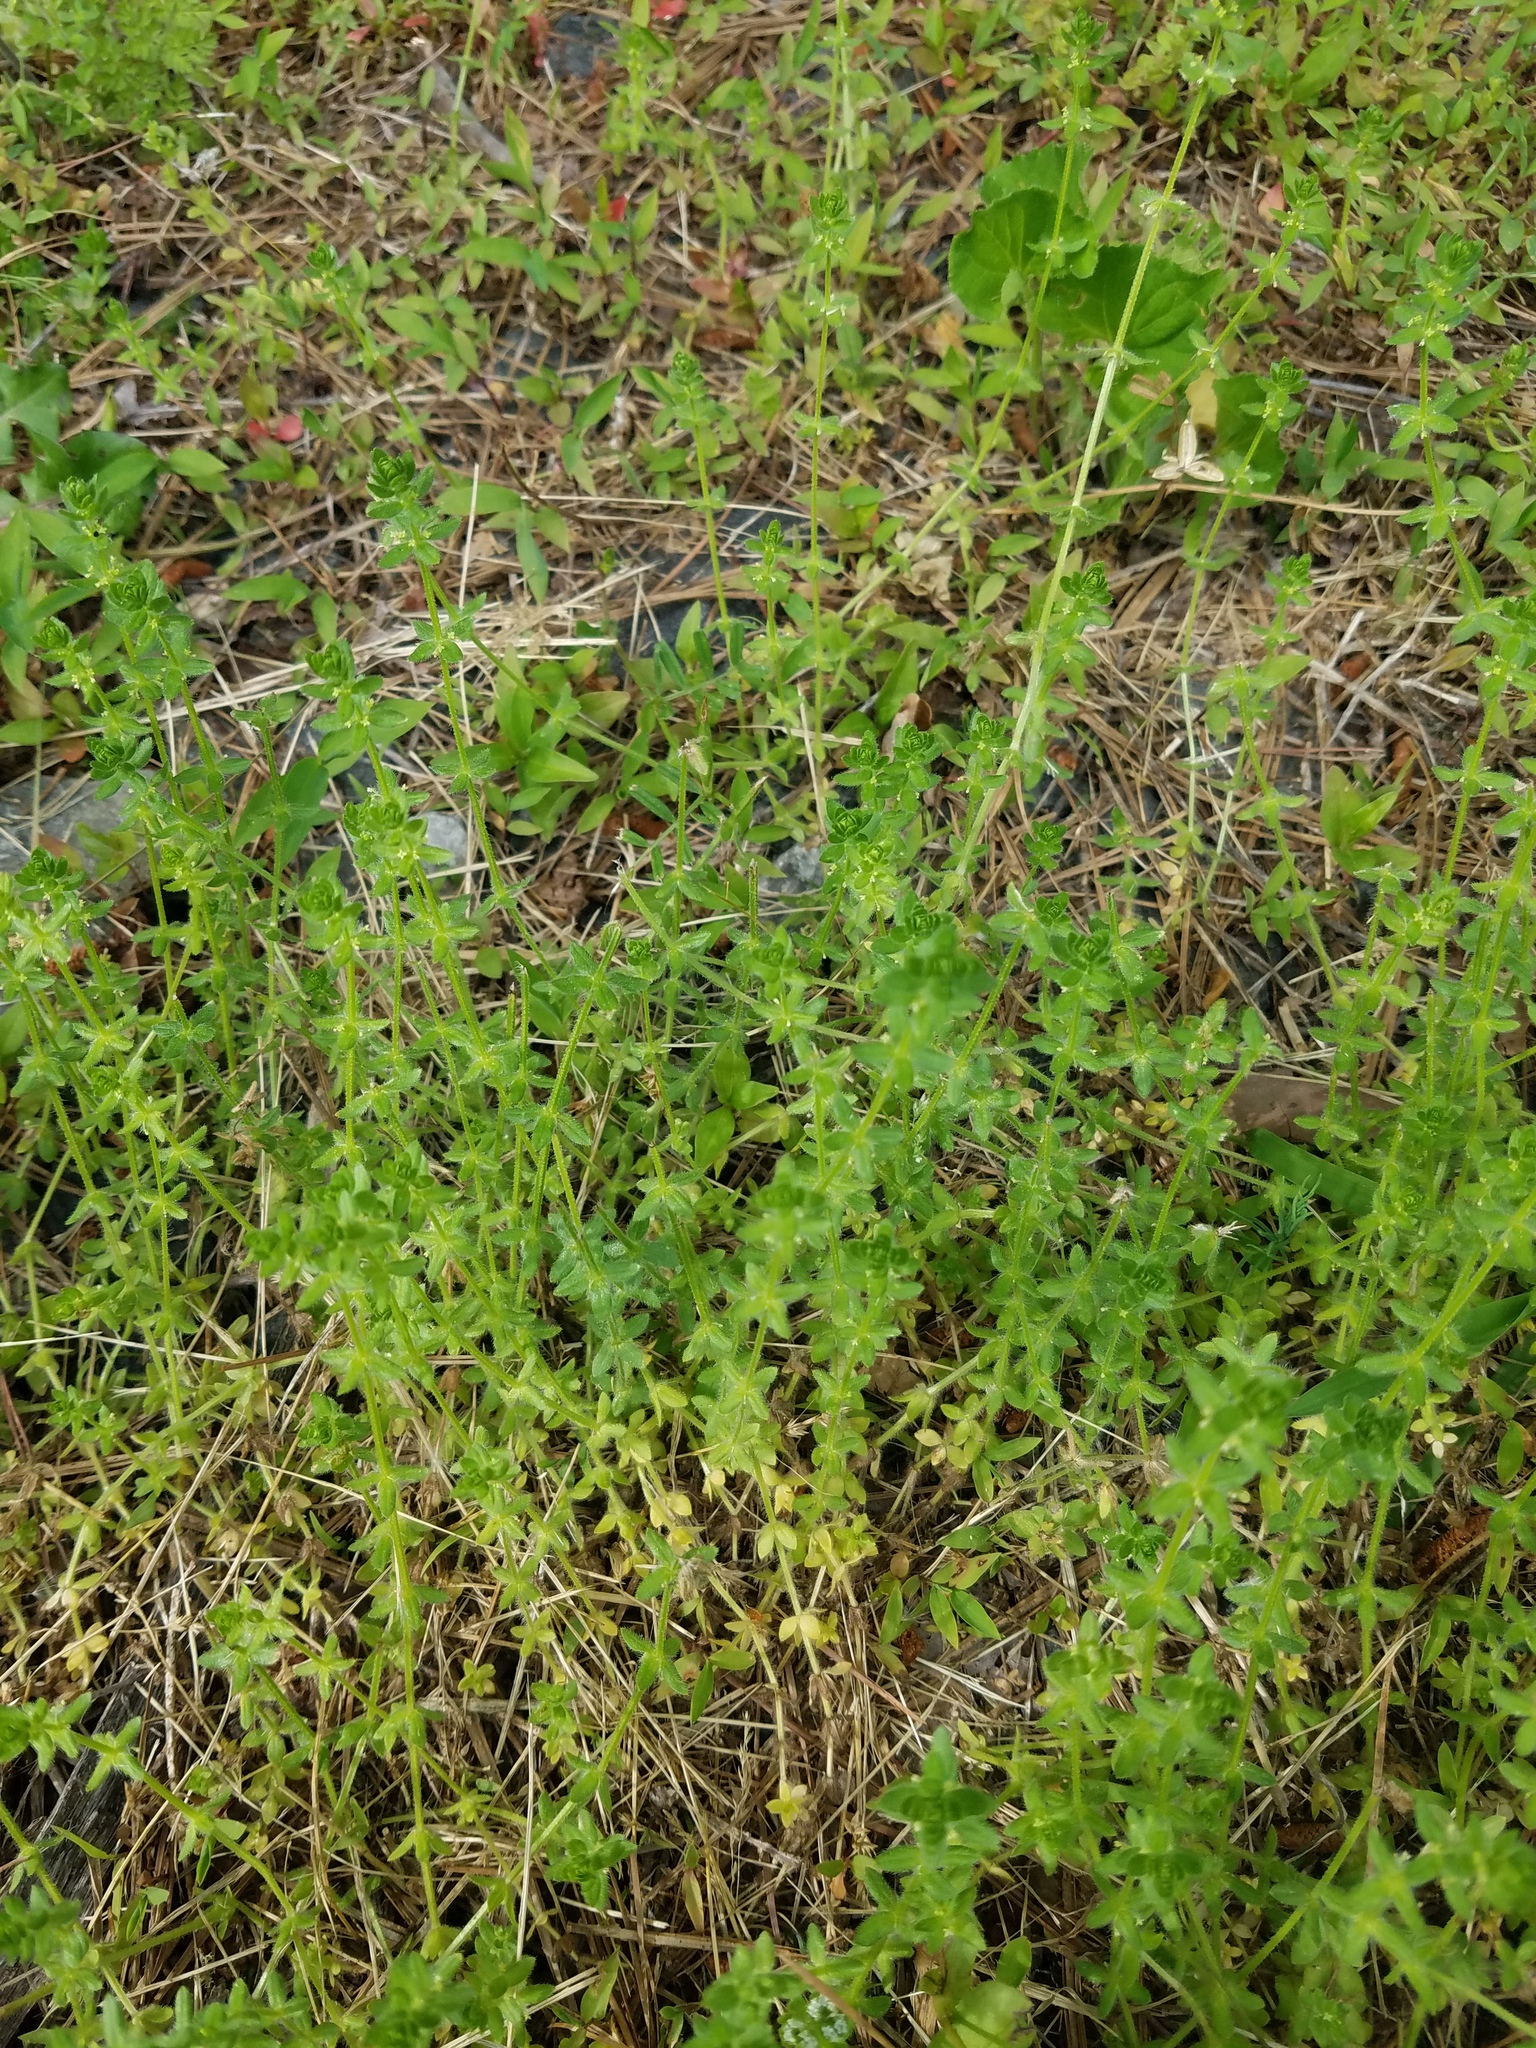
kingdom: Plantae
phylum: Tracheophyta
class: Magnoliopsida
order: Gentianales
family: Rubiaceae
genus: Cruciata
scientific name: Cruciata pedemontana
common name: Piedmont bedstraw
